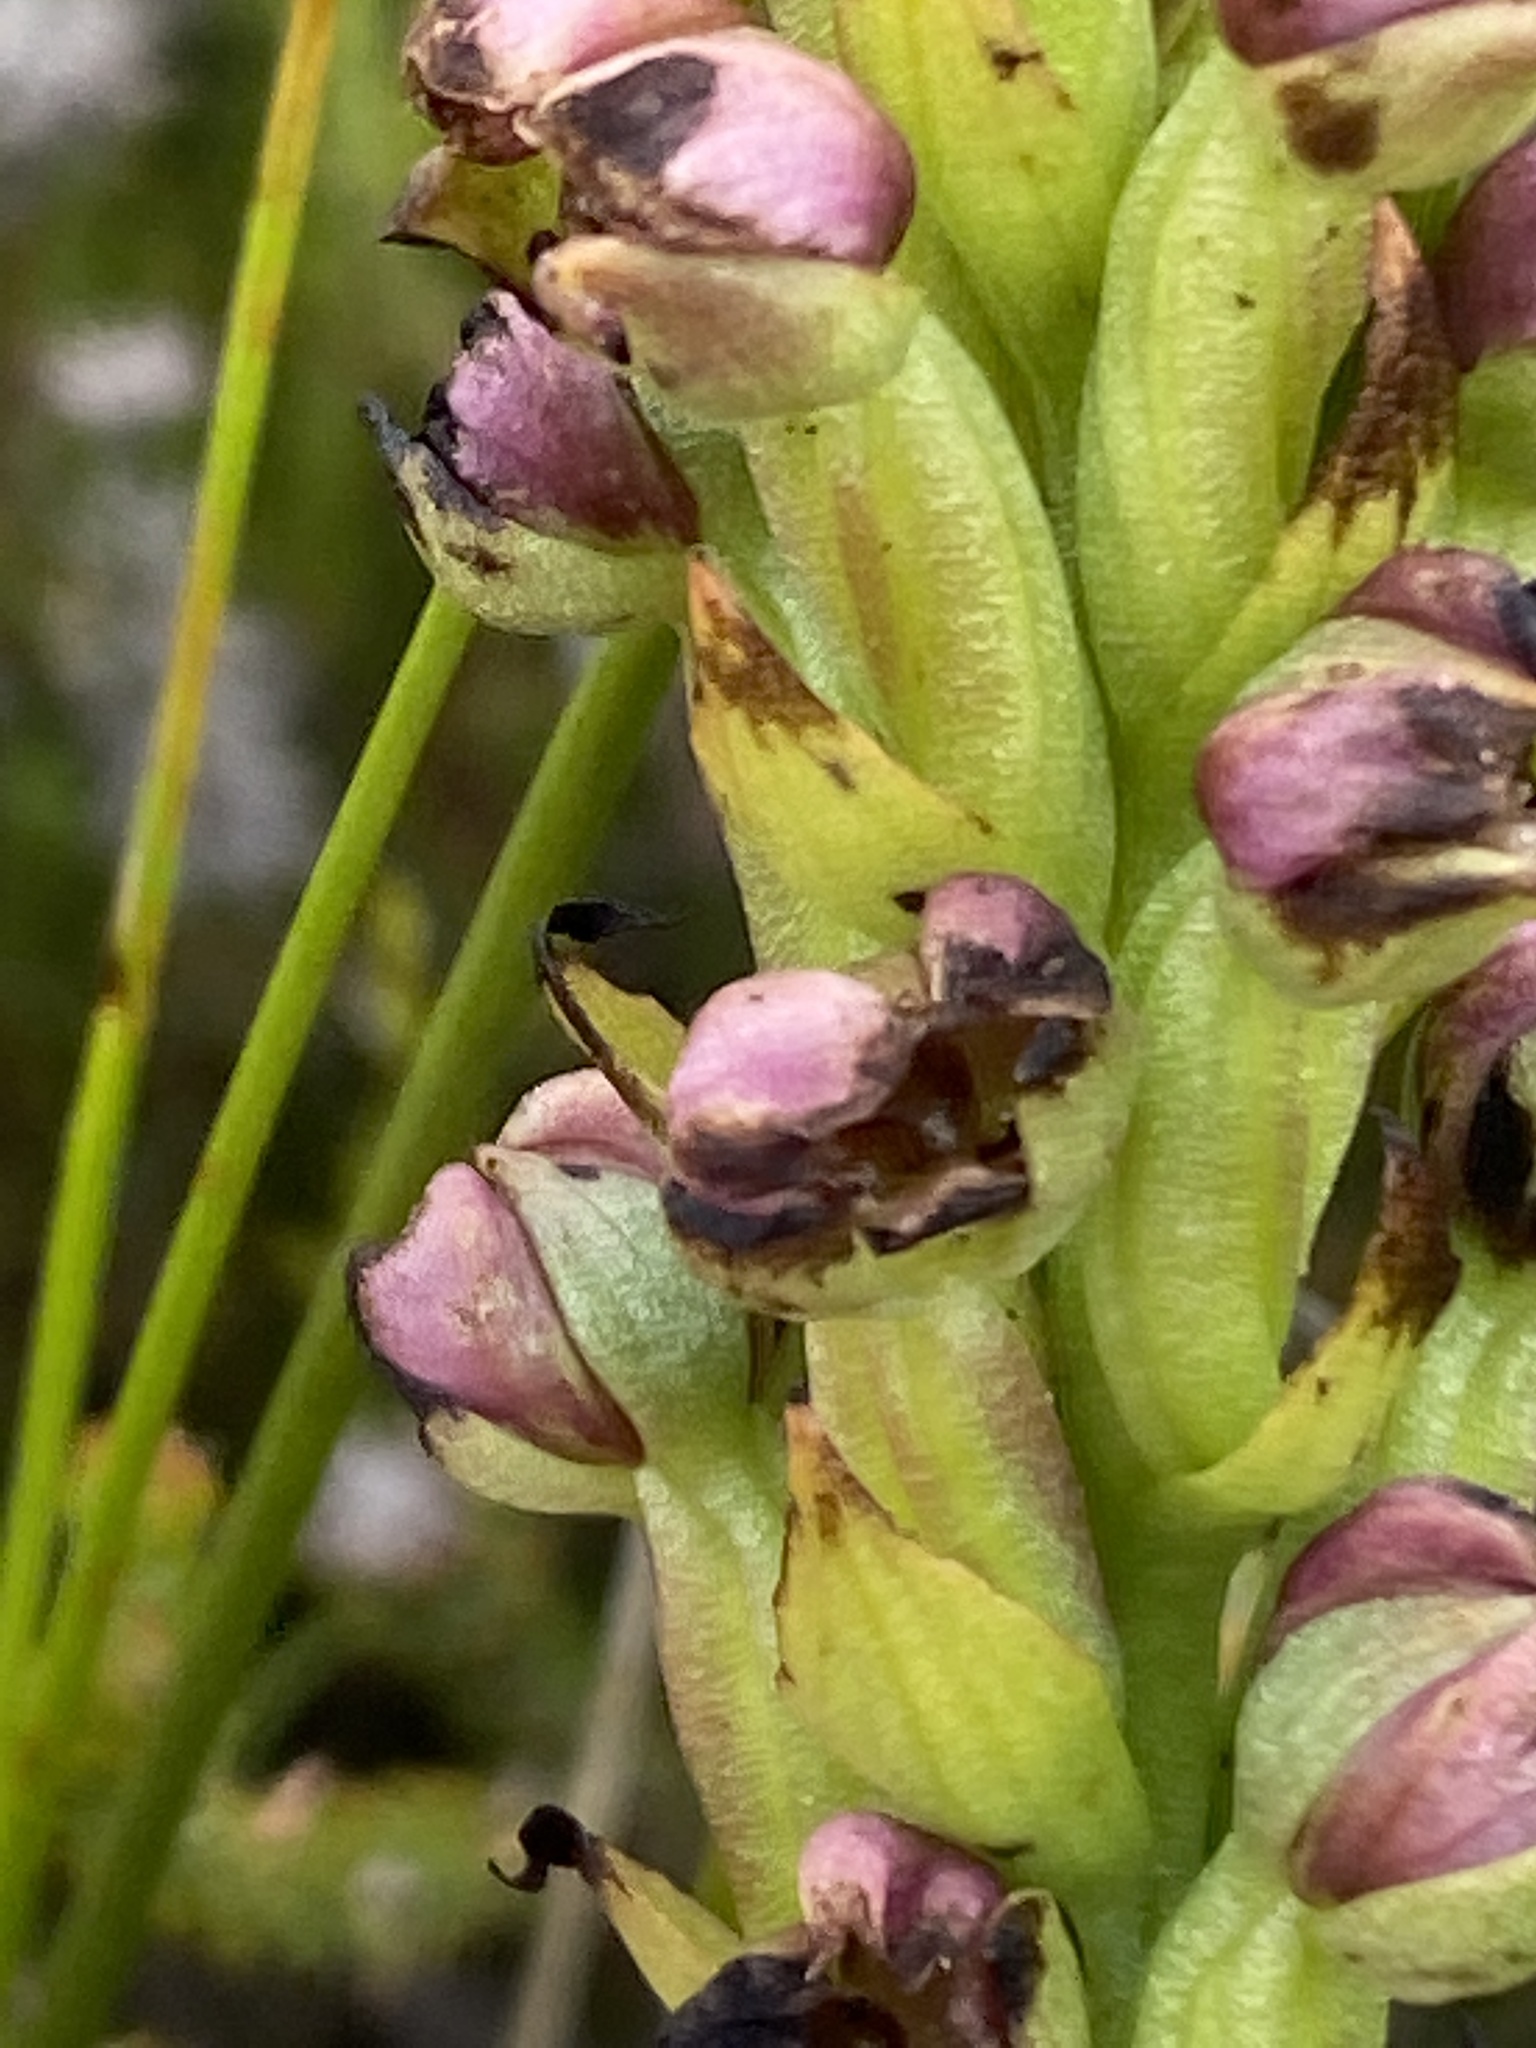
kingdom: Plantae
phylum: Tracheophyta
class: Liliopsida
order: Asparagales
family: Orchidaceae
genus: Evotella
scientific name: Evotella carnosa
